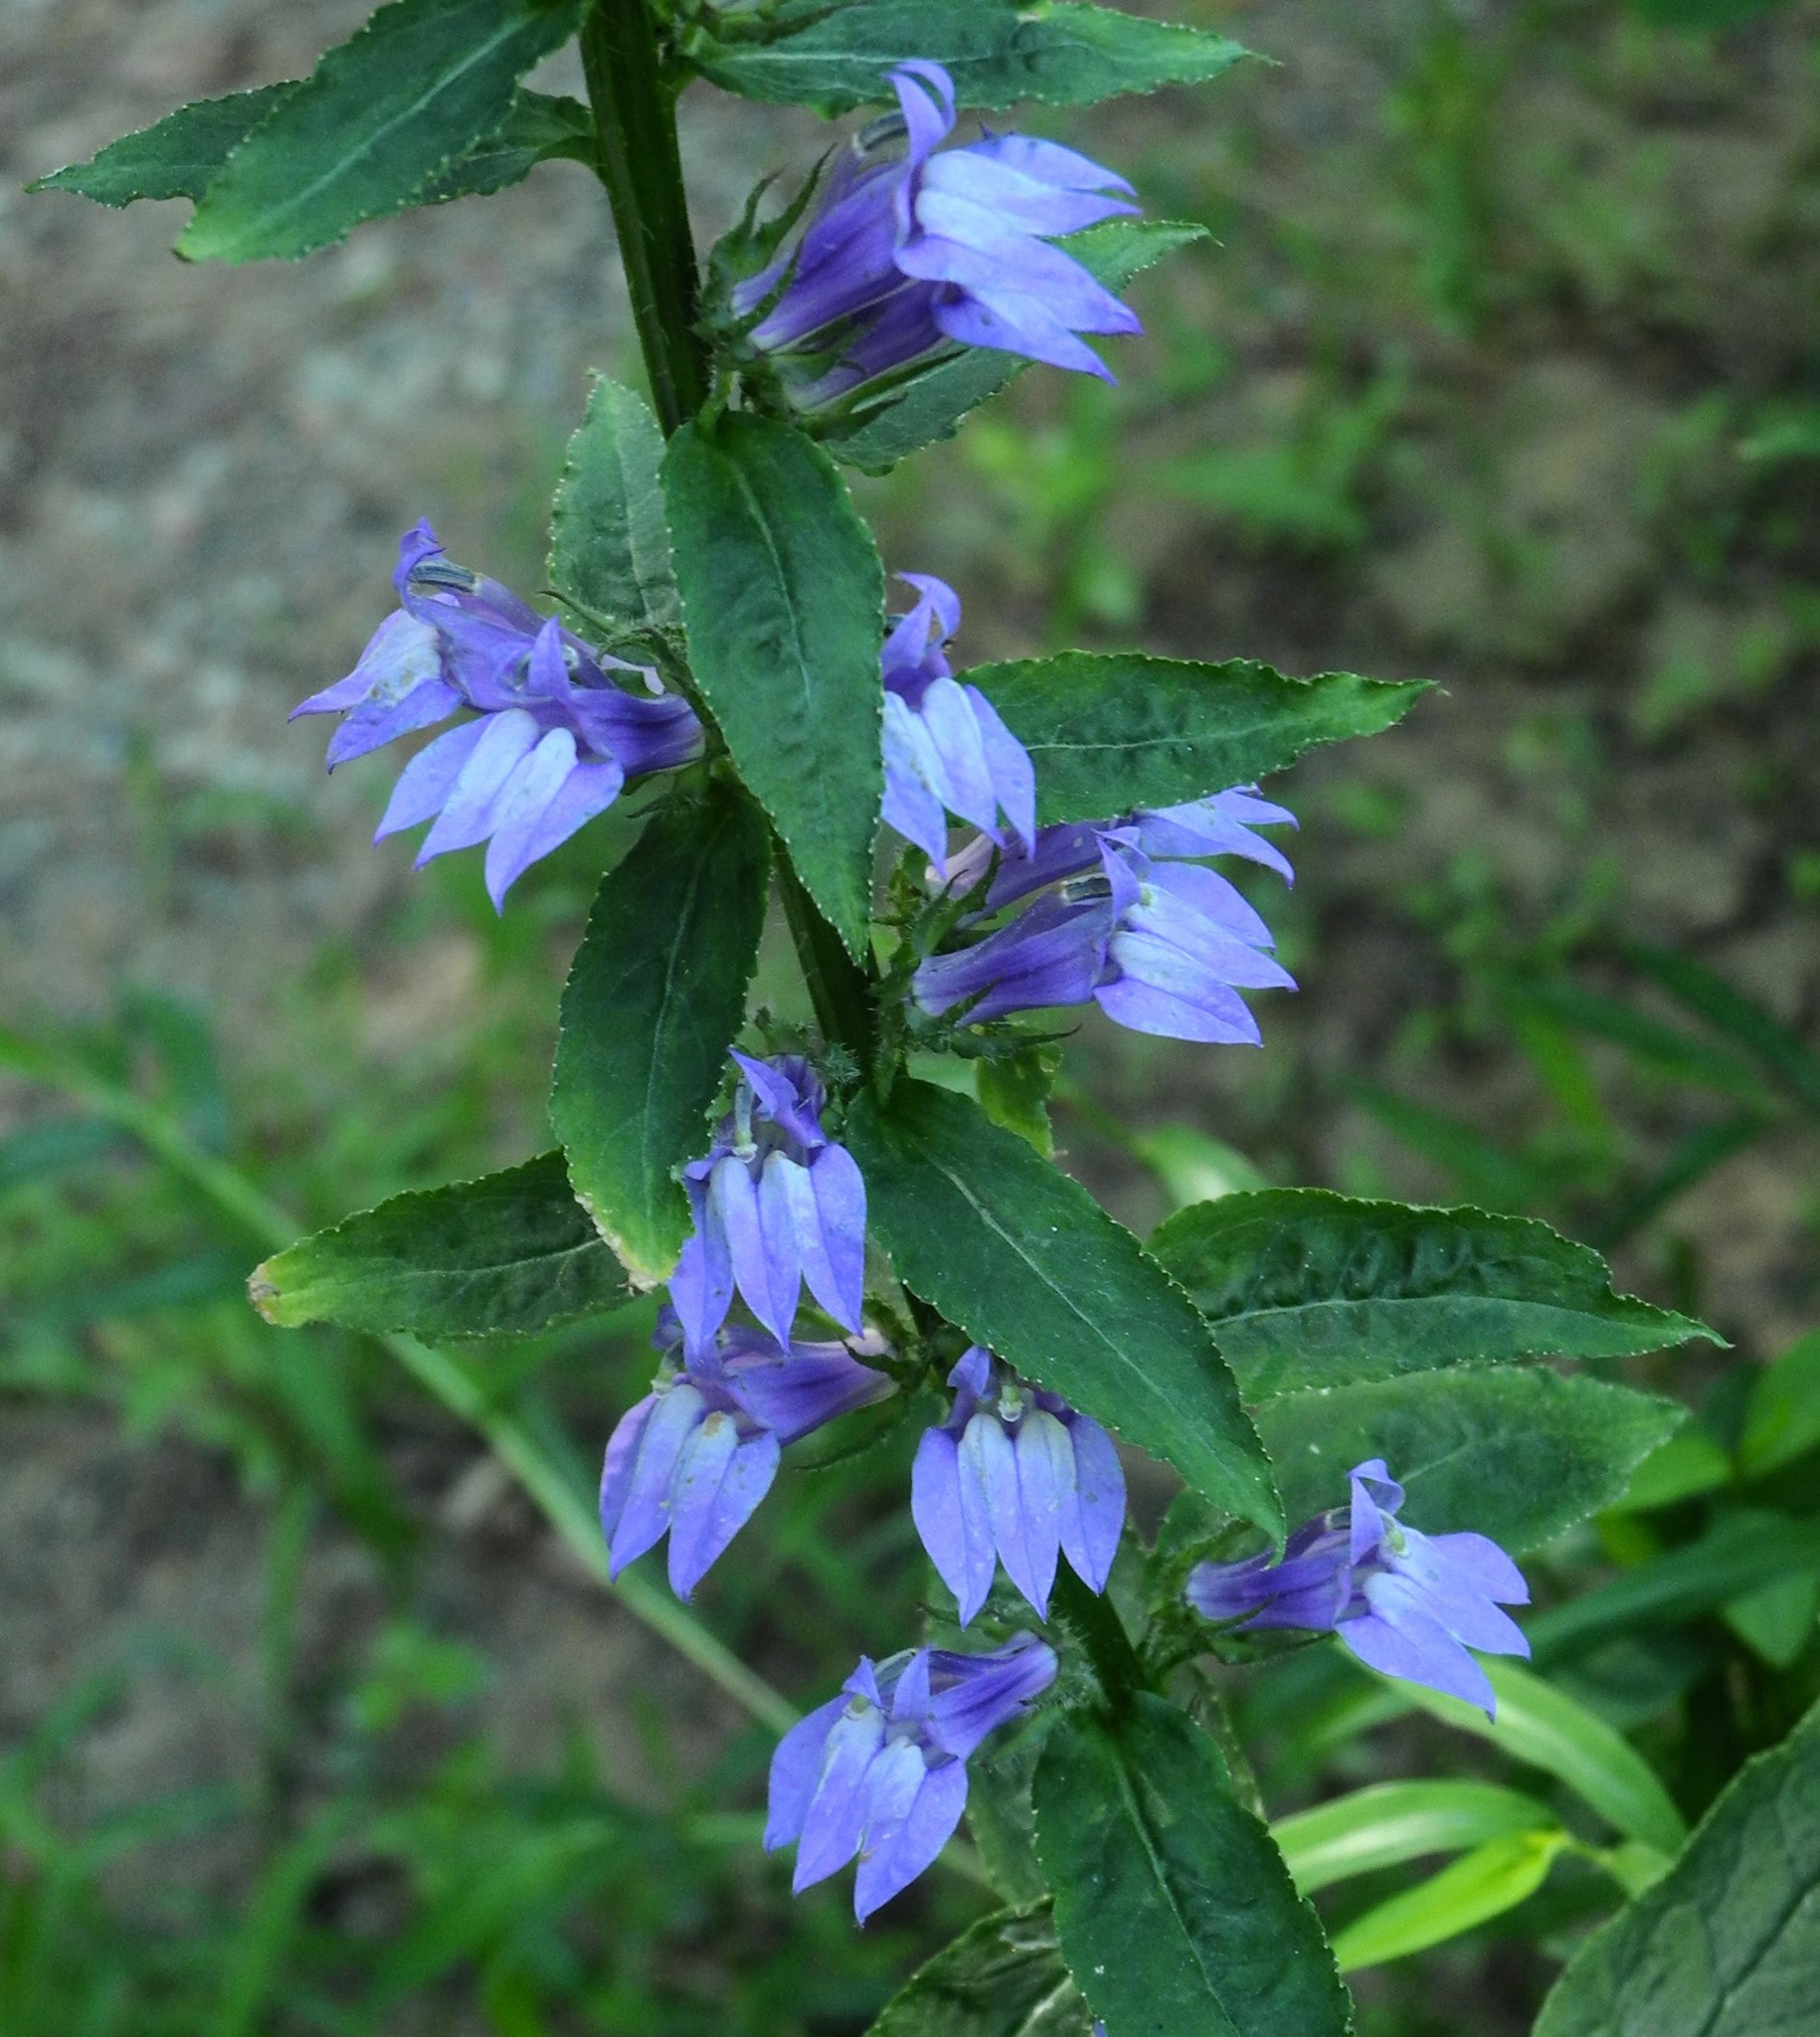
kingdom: Plantae
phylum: Tracheophyta
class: Magnoliopsida
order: Asterales
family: Campanulaceae
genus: Lobelia
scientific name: Lobelia siphilitica
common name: Great lobelia
